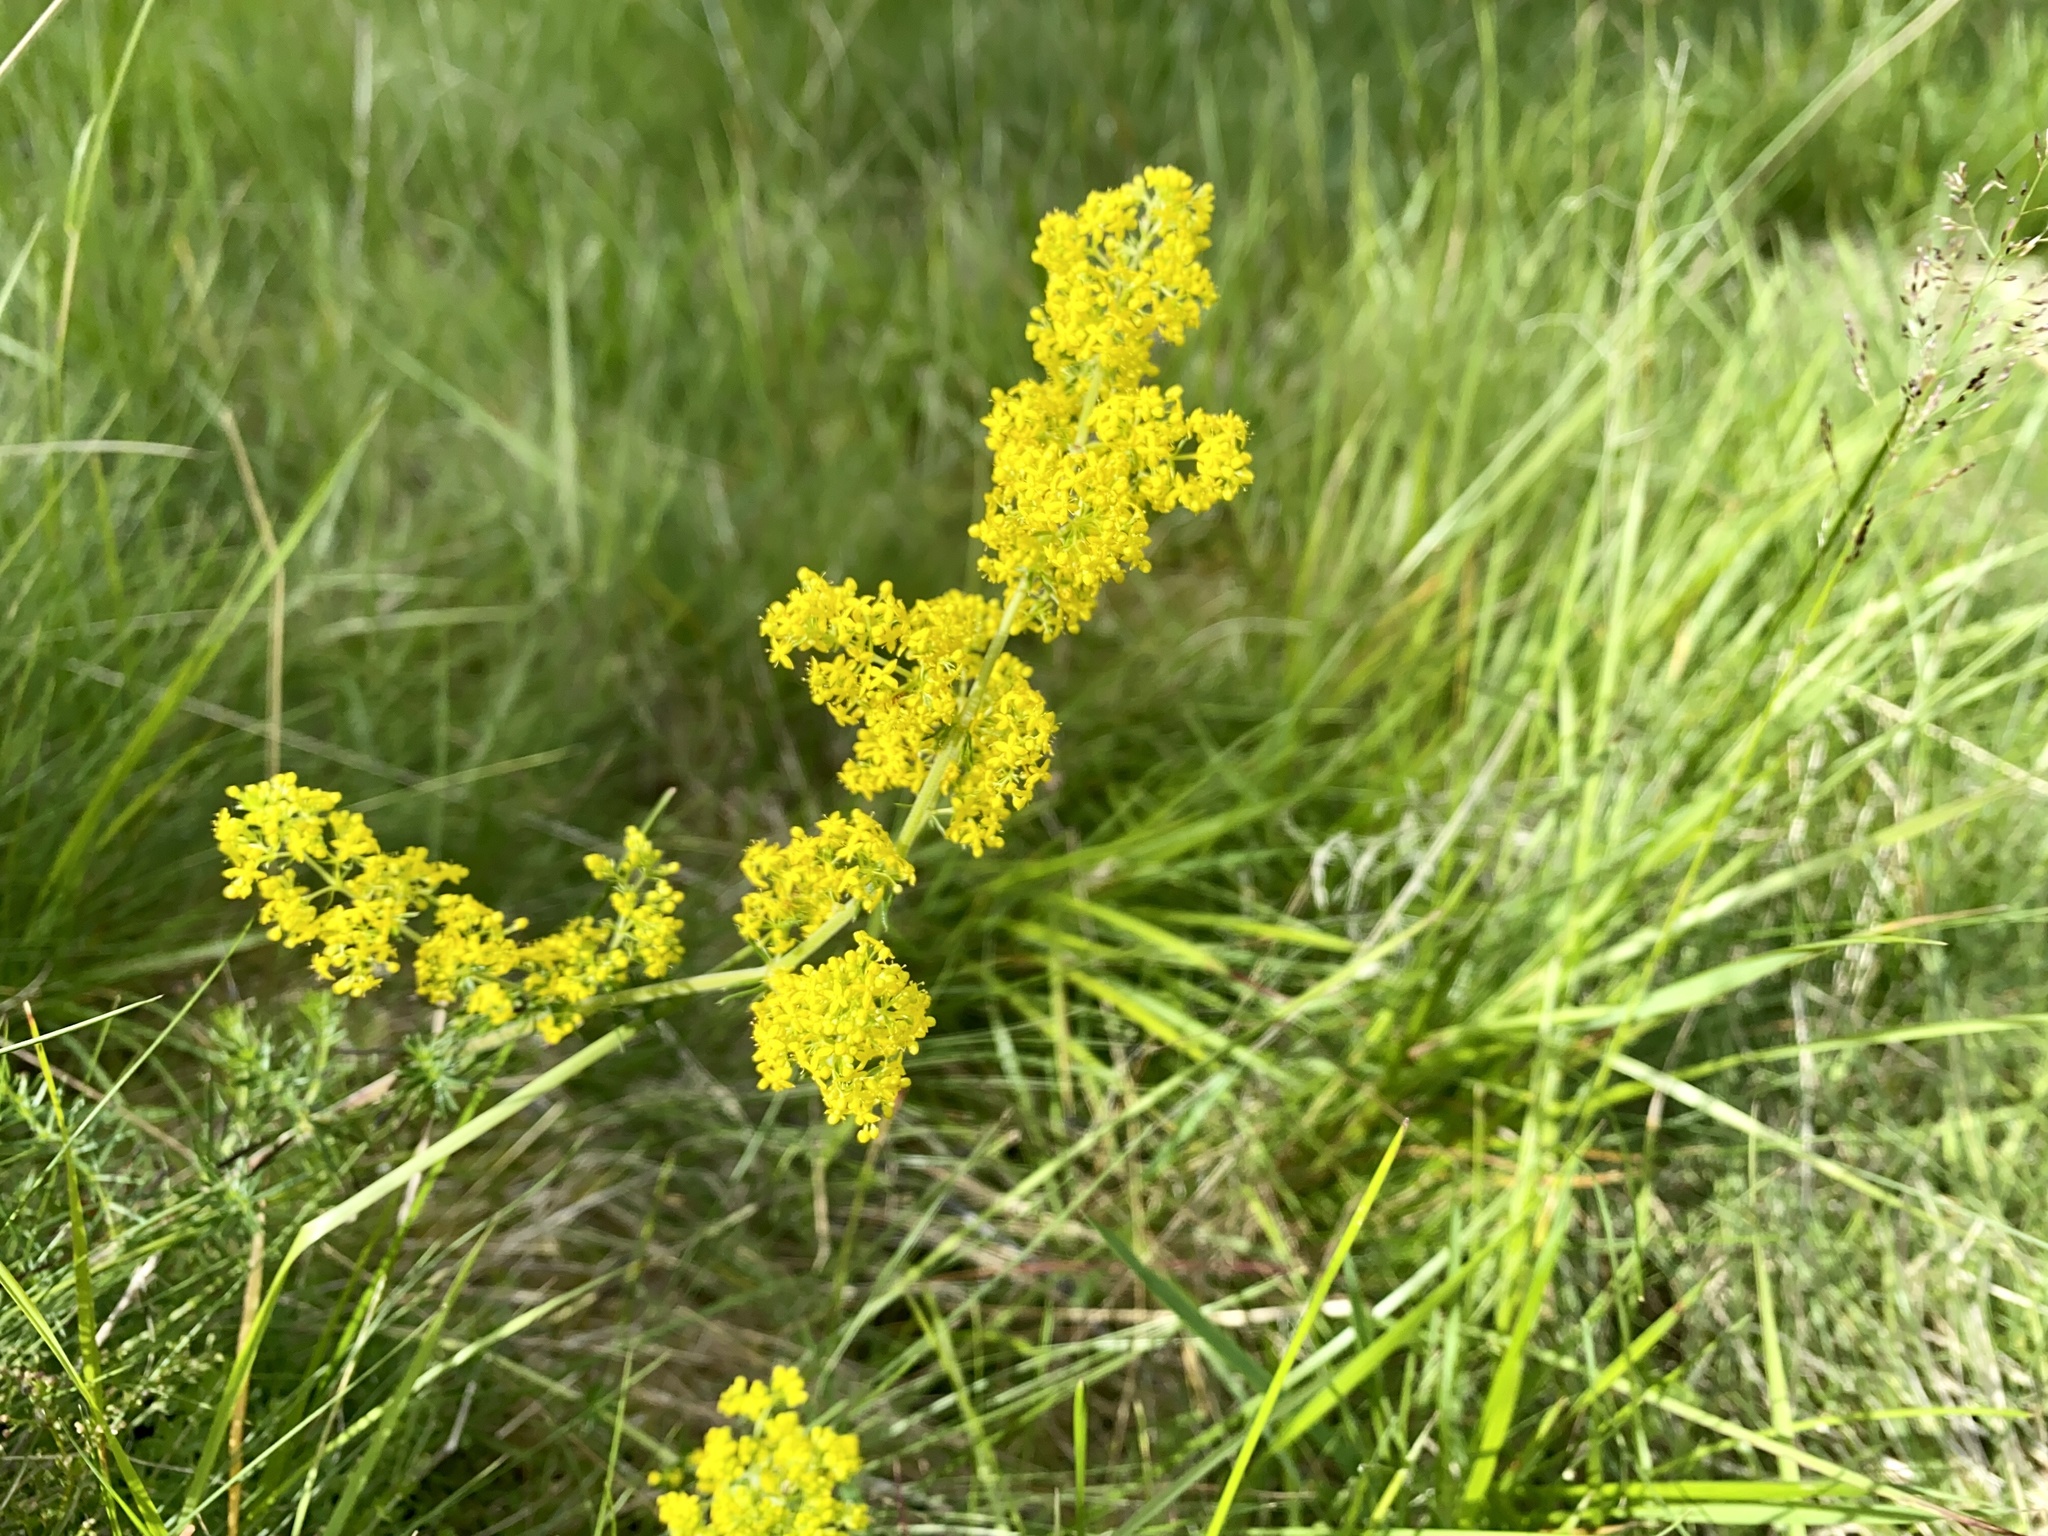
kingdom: Plantae
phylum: Tracheophyta
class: Magnoliopsida
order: Gentianales
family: Rubiaceae
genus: Galium
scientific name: Galium verum
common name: Lady's bedstraw
